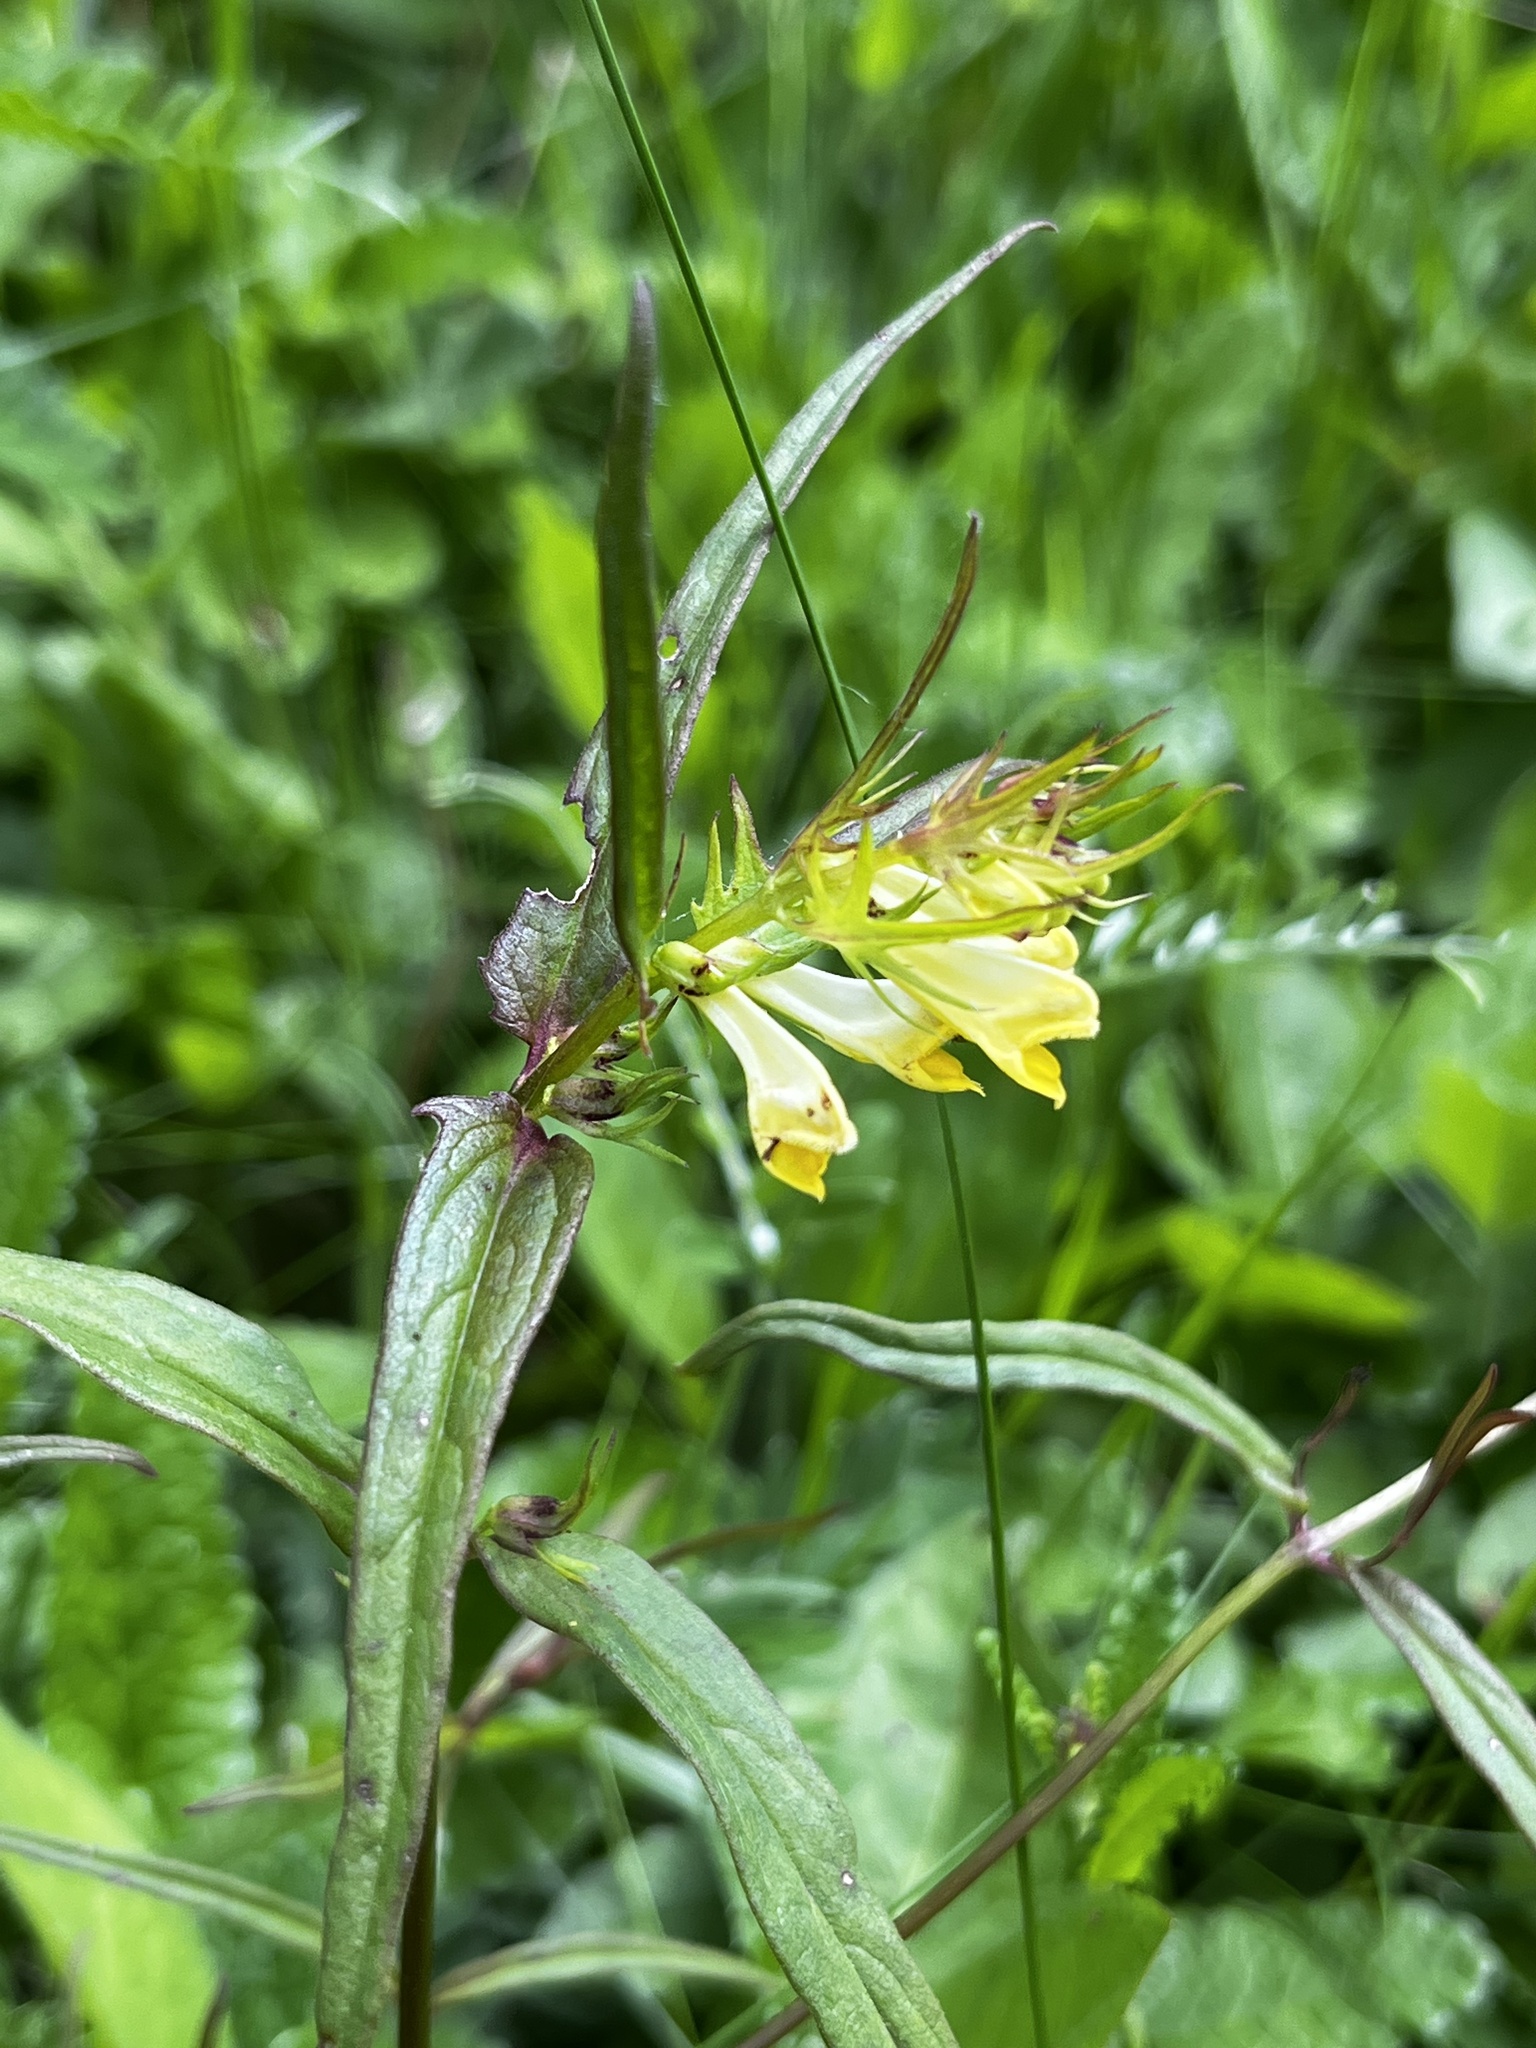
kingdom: Plantae
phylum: Tracheophyta
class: Magnoliopsida
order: Lamiales
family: Orobanchaceae
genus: Melampyrum
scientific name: Melampyrum pratense
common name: Common cow-wheat
